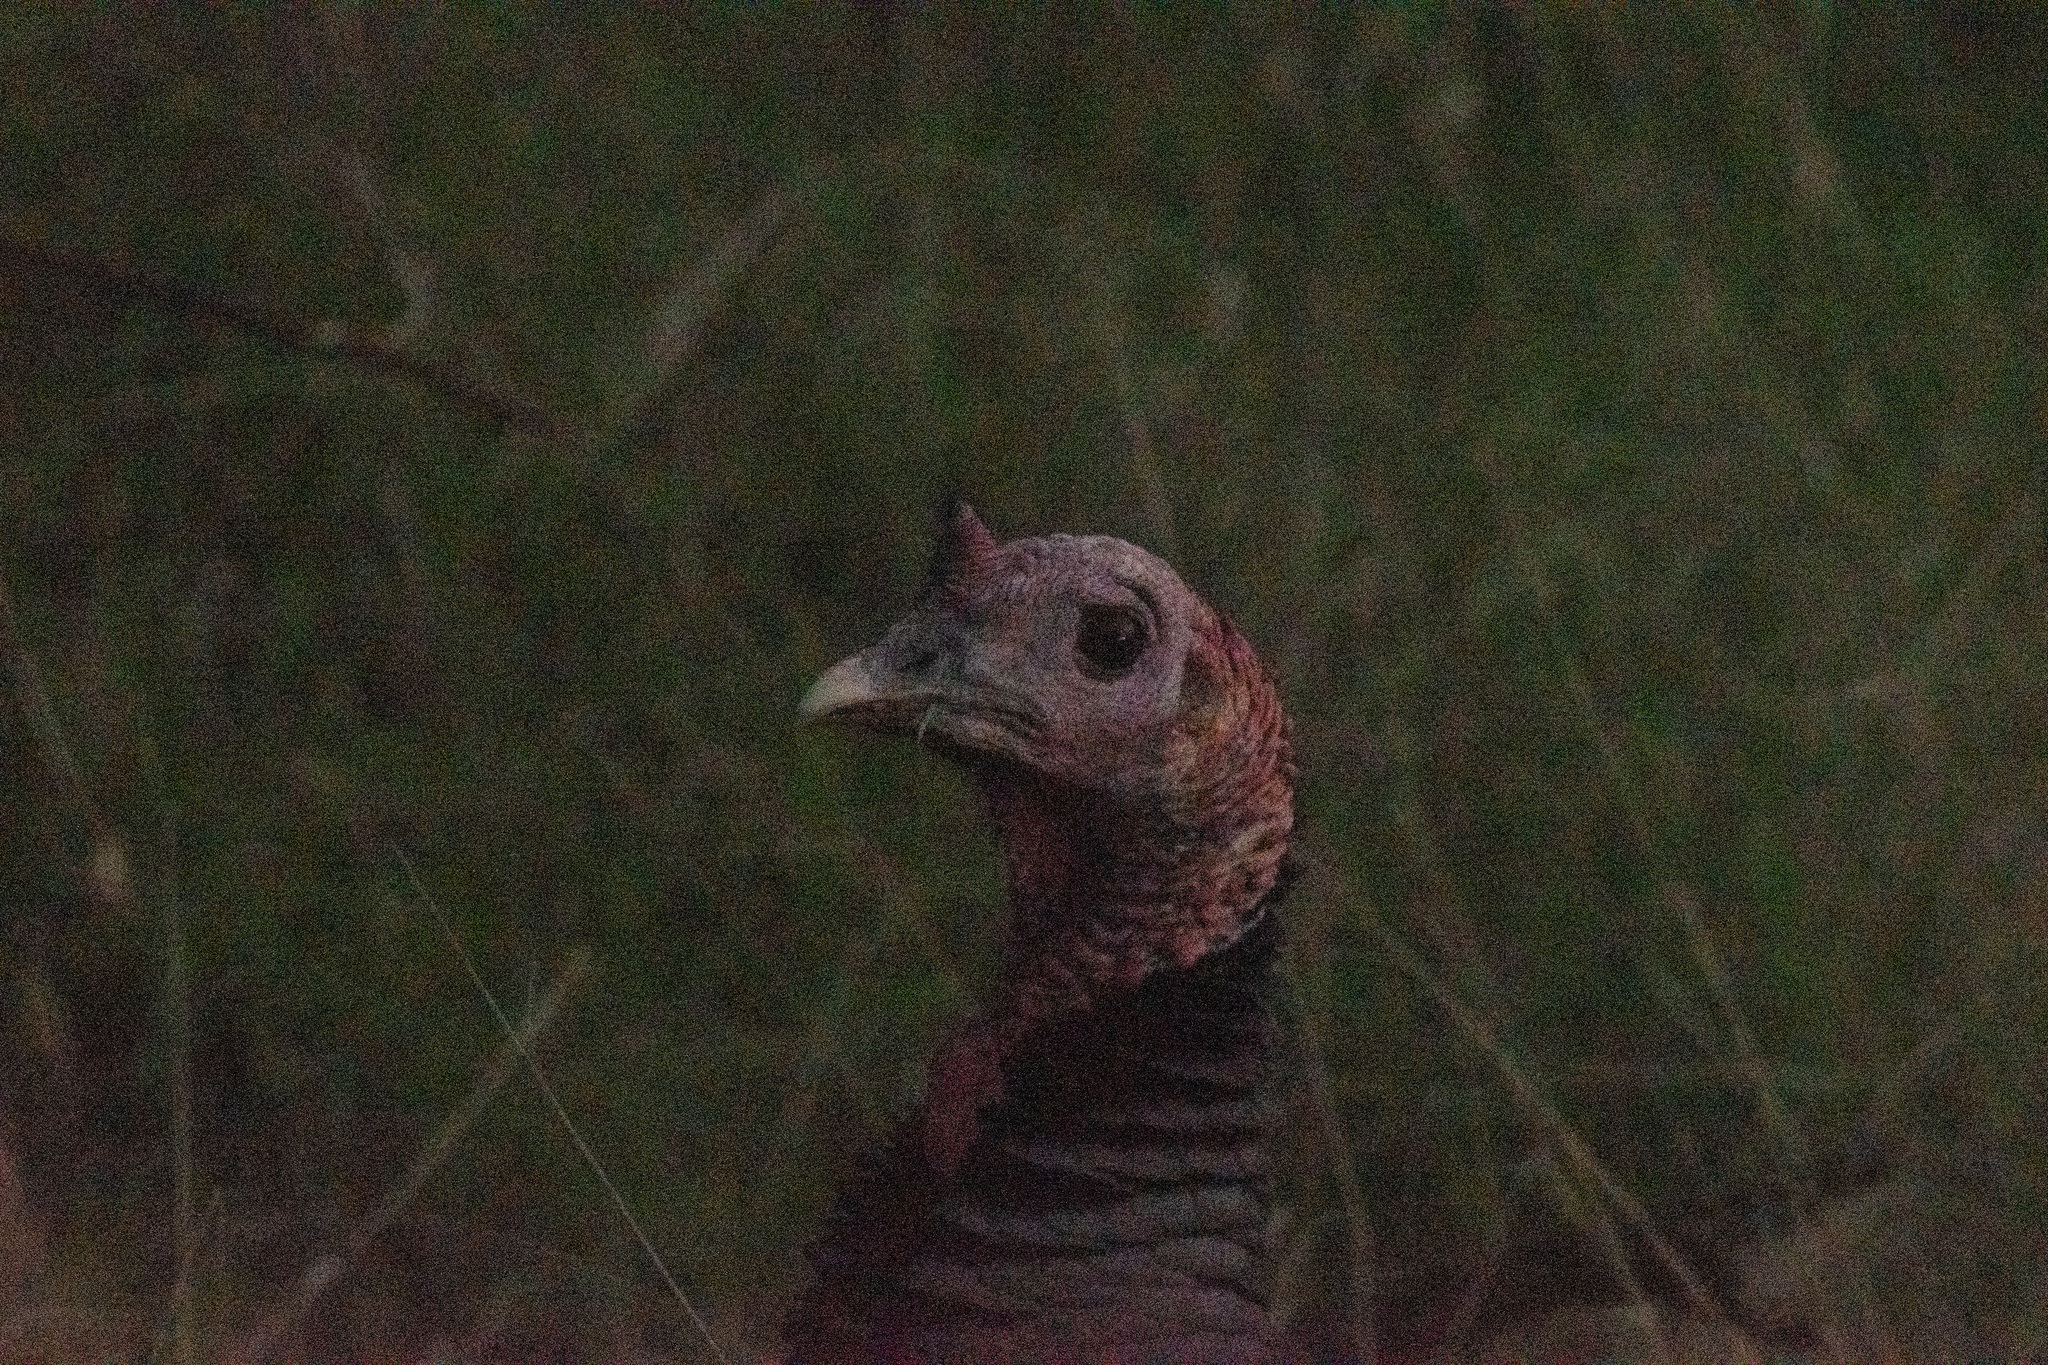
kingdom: Animalia
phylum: Chordata
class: Aves
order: Galliformes
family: Phasianidae
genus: Meleagris
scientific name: Meleagris gallopavo
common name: Wild turkey
